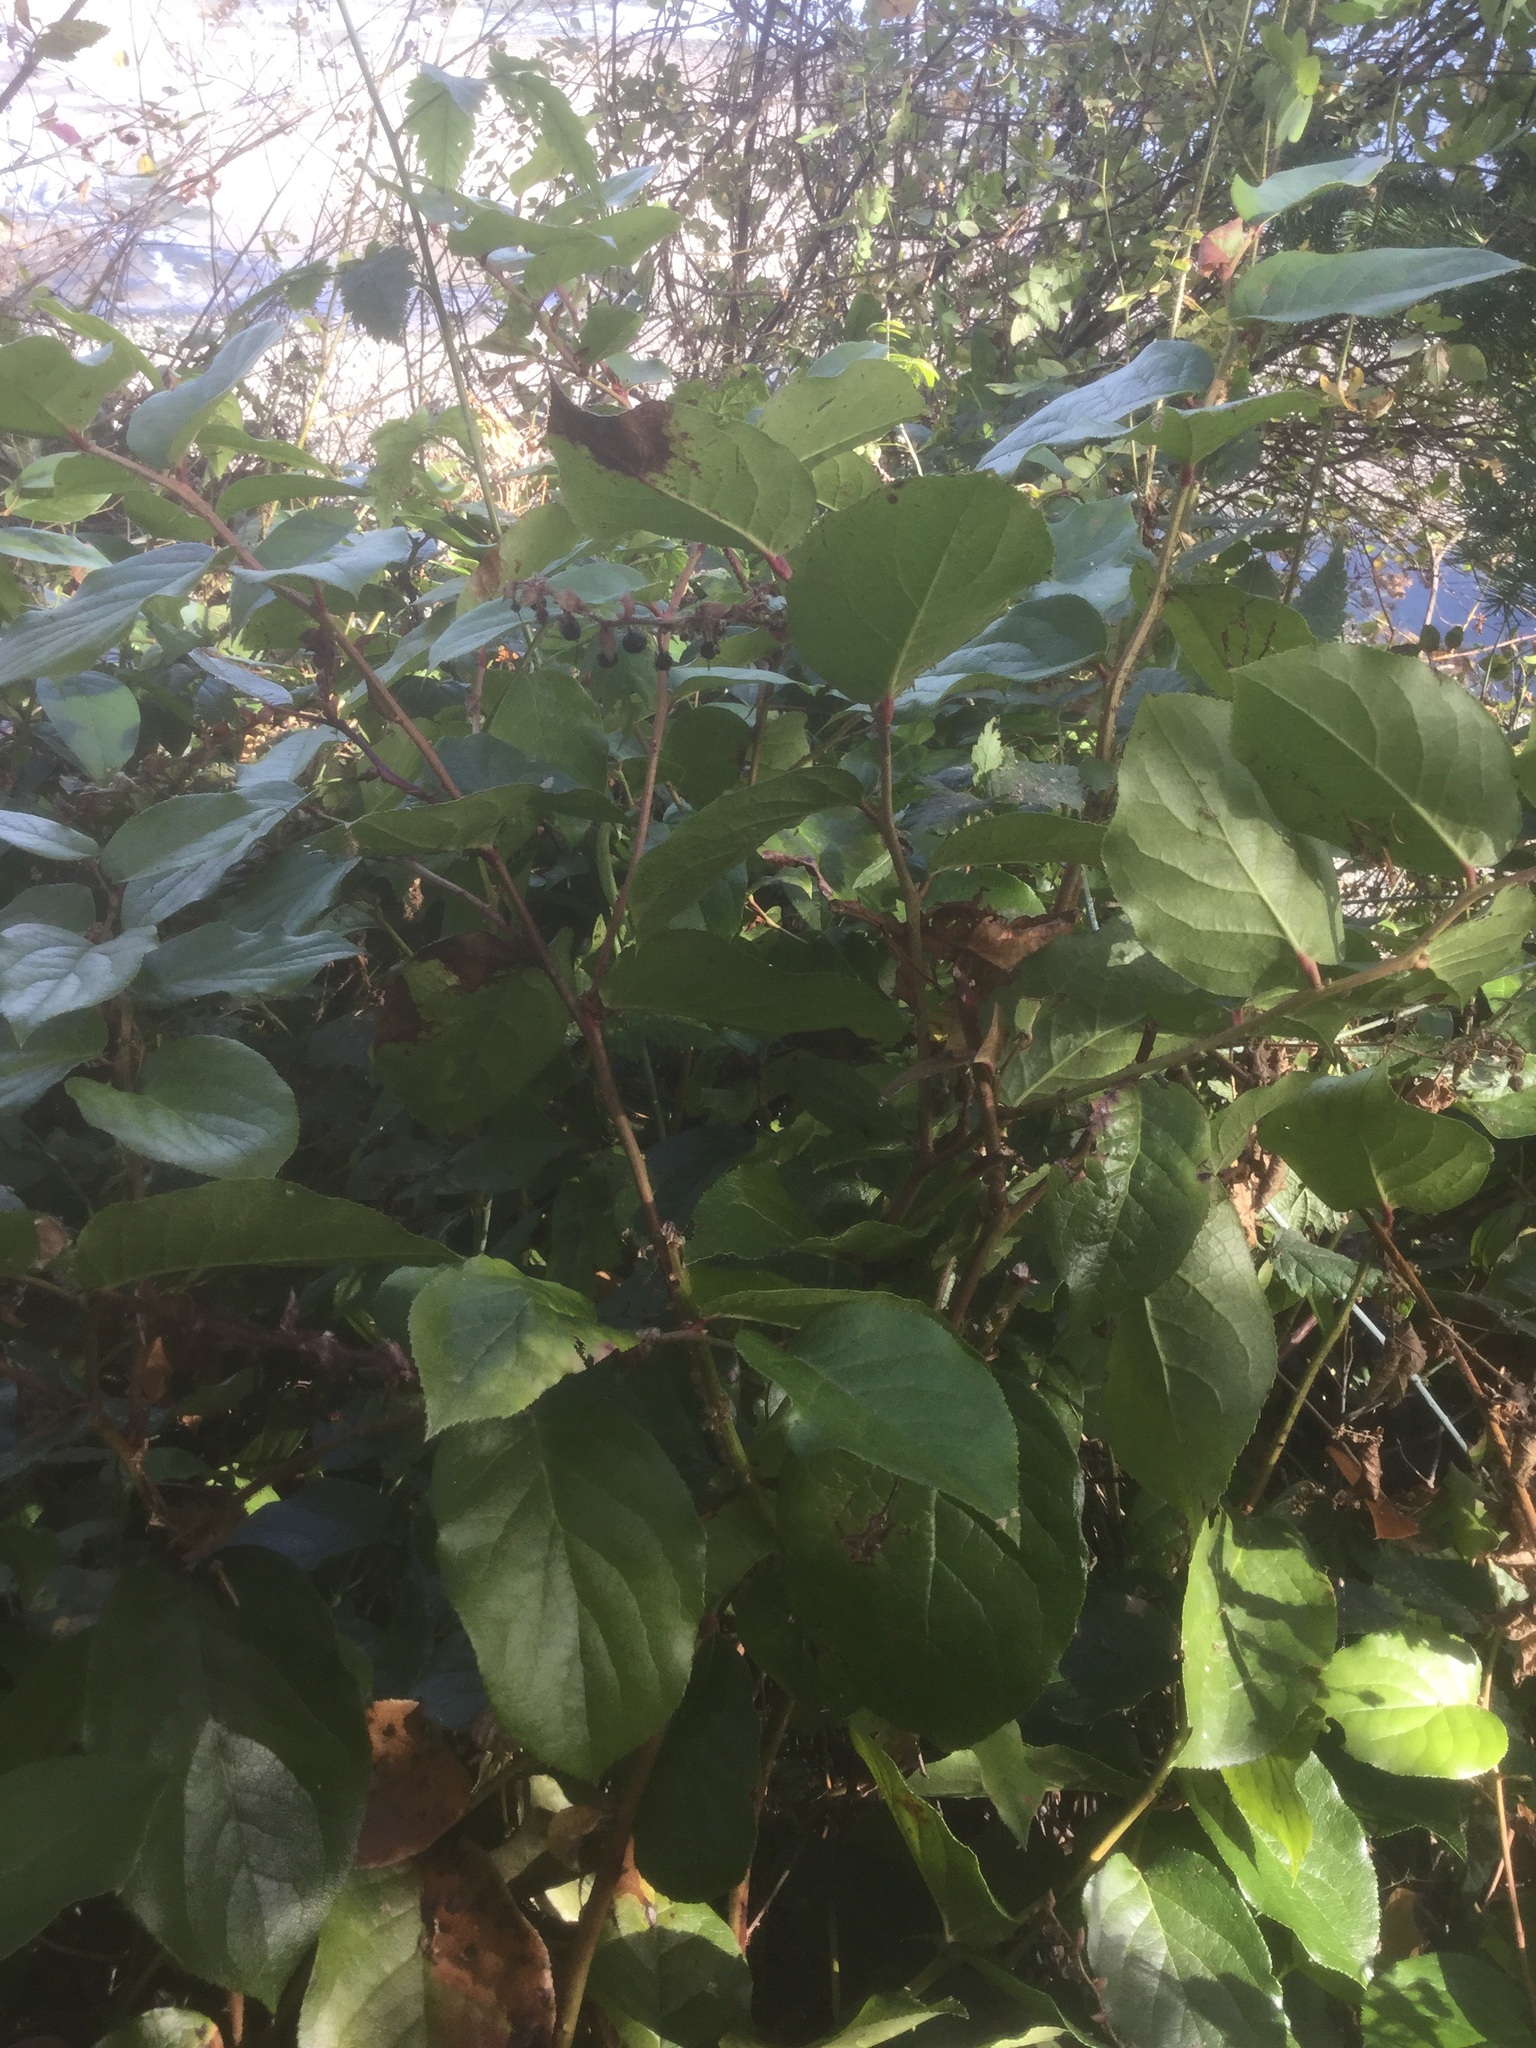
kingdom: Plantae
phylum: Tracheophyta
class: Magnoliopsida
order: Ericales
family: Ericaceae
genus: Gaultheria
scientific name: Gaultheria shallon
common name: Shallon
